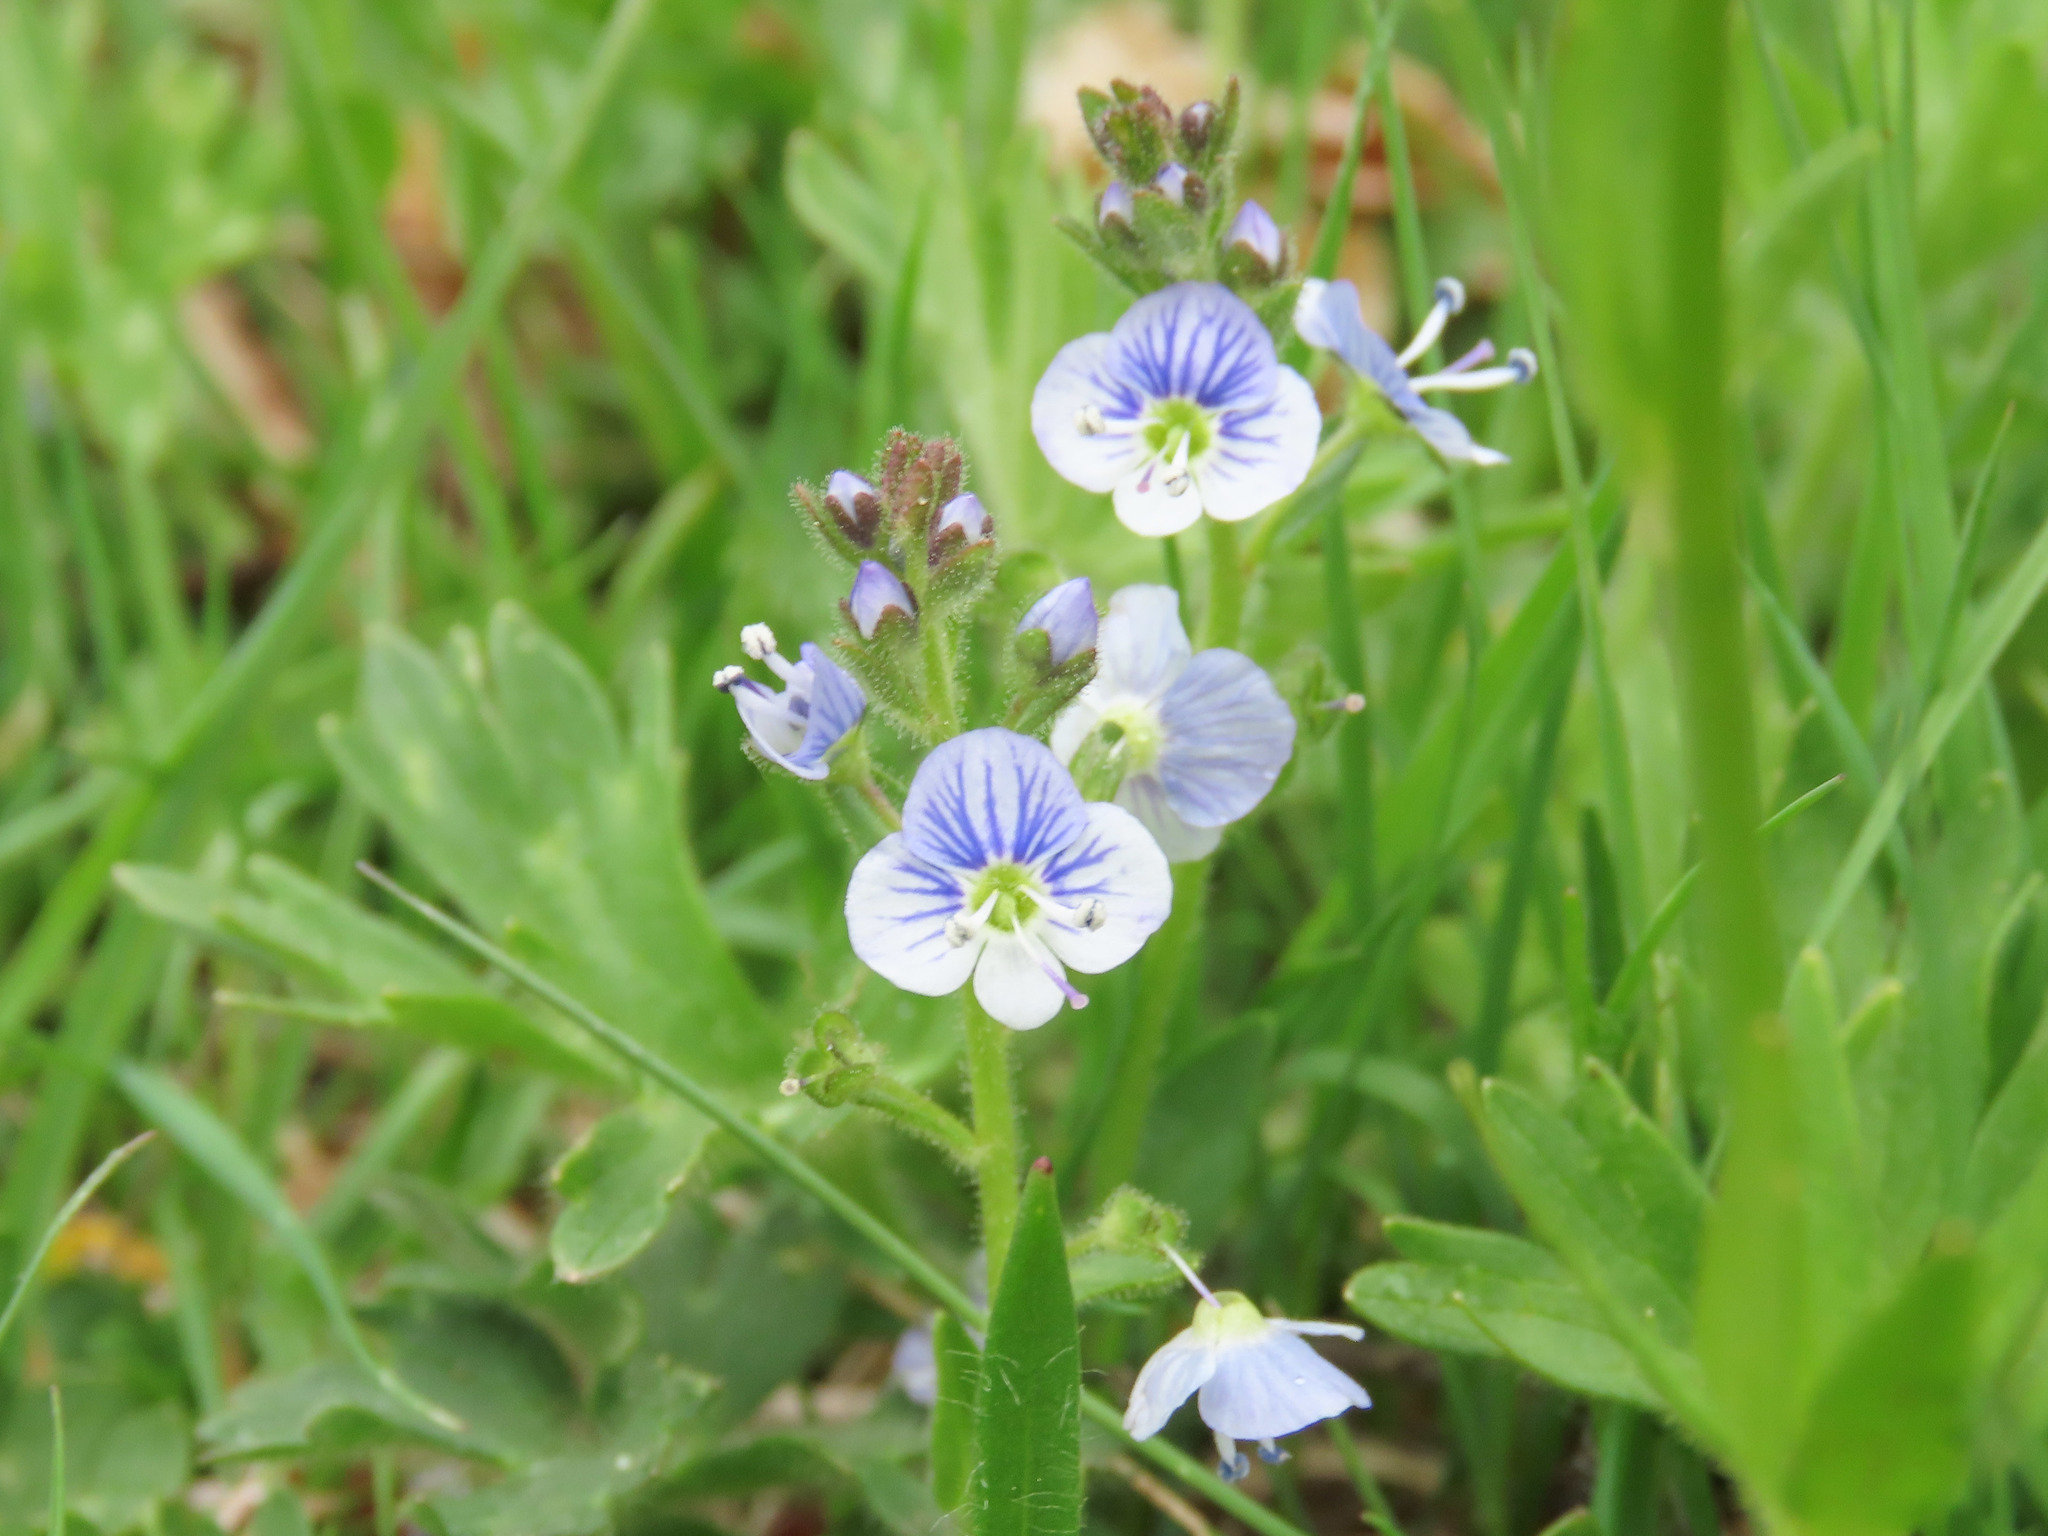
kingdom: Plantae
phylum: Tracheophyta
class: Magnoliopsida
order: Lamiales
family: Plantaginaceae
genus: Veronica
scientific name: Veronica serpyllifolia
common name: Thyme-leaved speedwell
